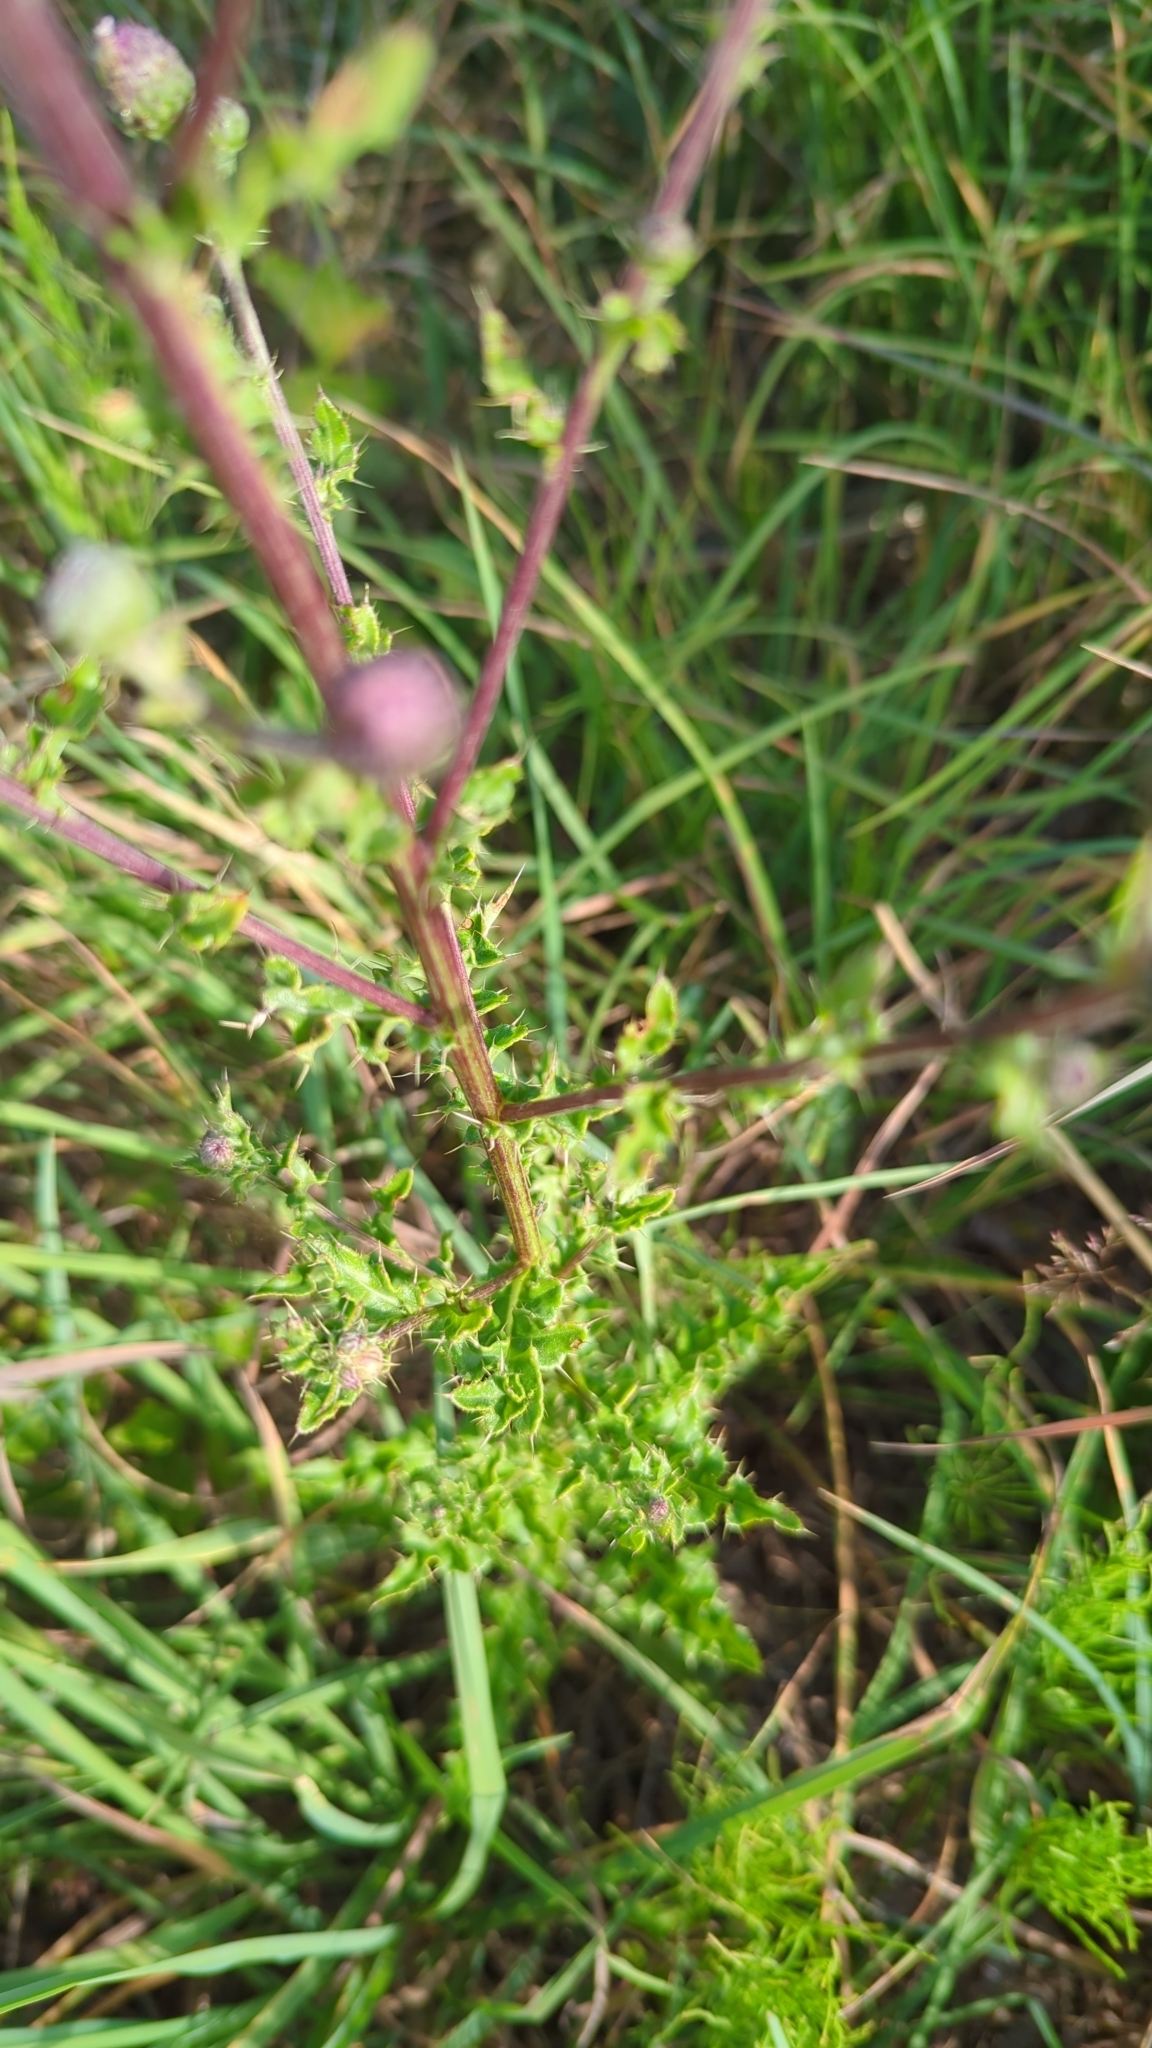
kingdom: Plantae
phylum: Tracheophyta
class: Magnoliopsida
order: Asterales
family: Asteraceae
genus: Cirsium
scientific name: Cirsium arvense
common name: Creeping thistle
